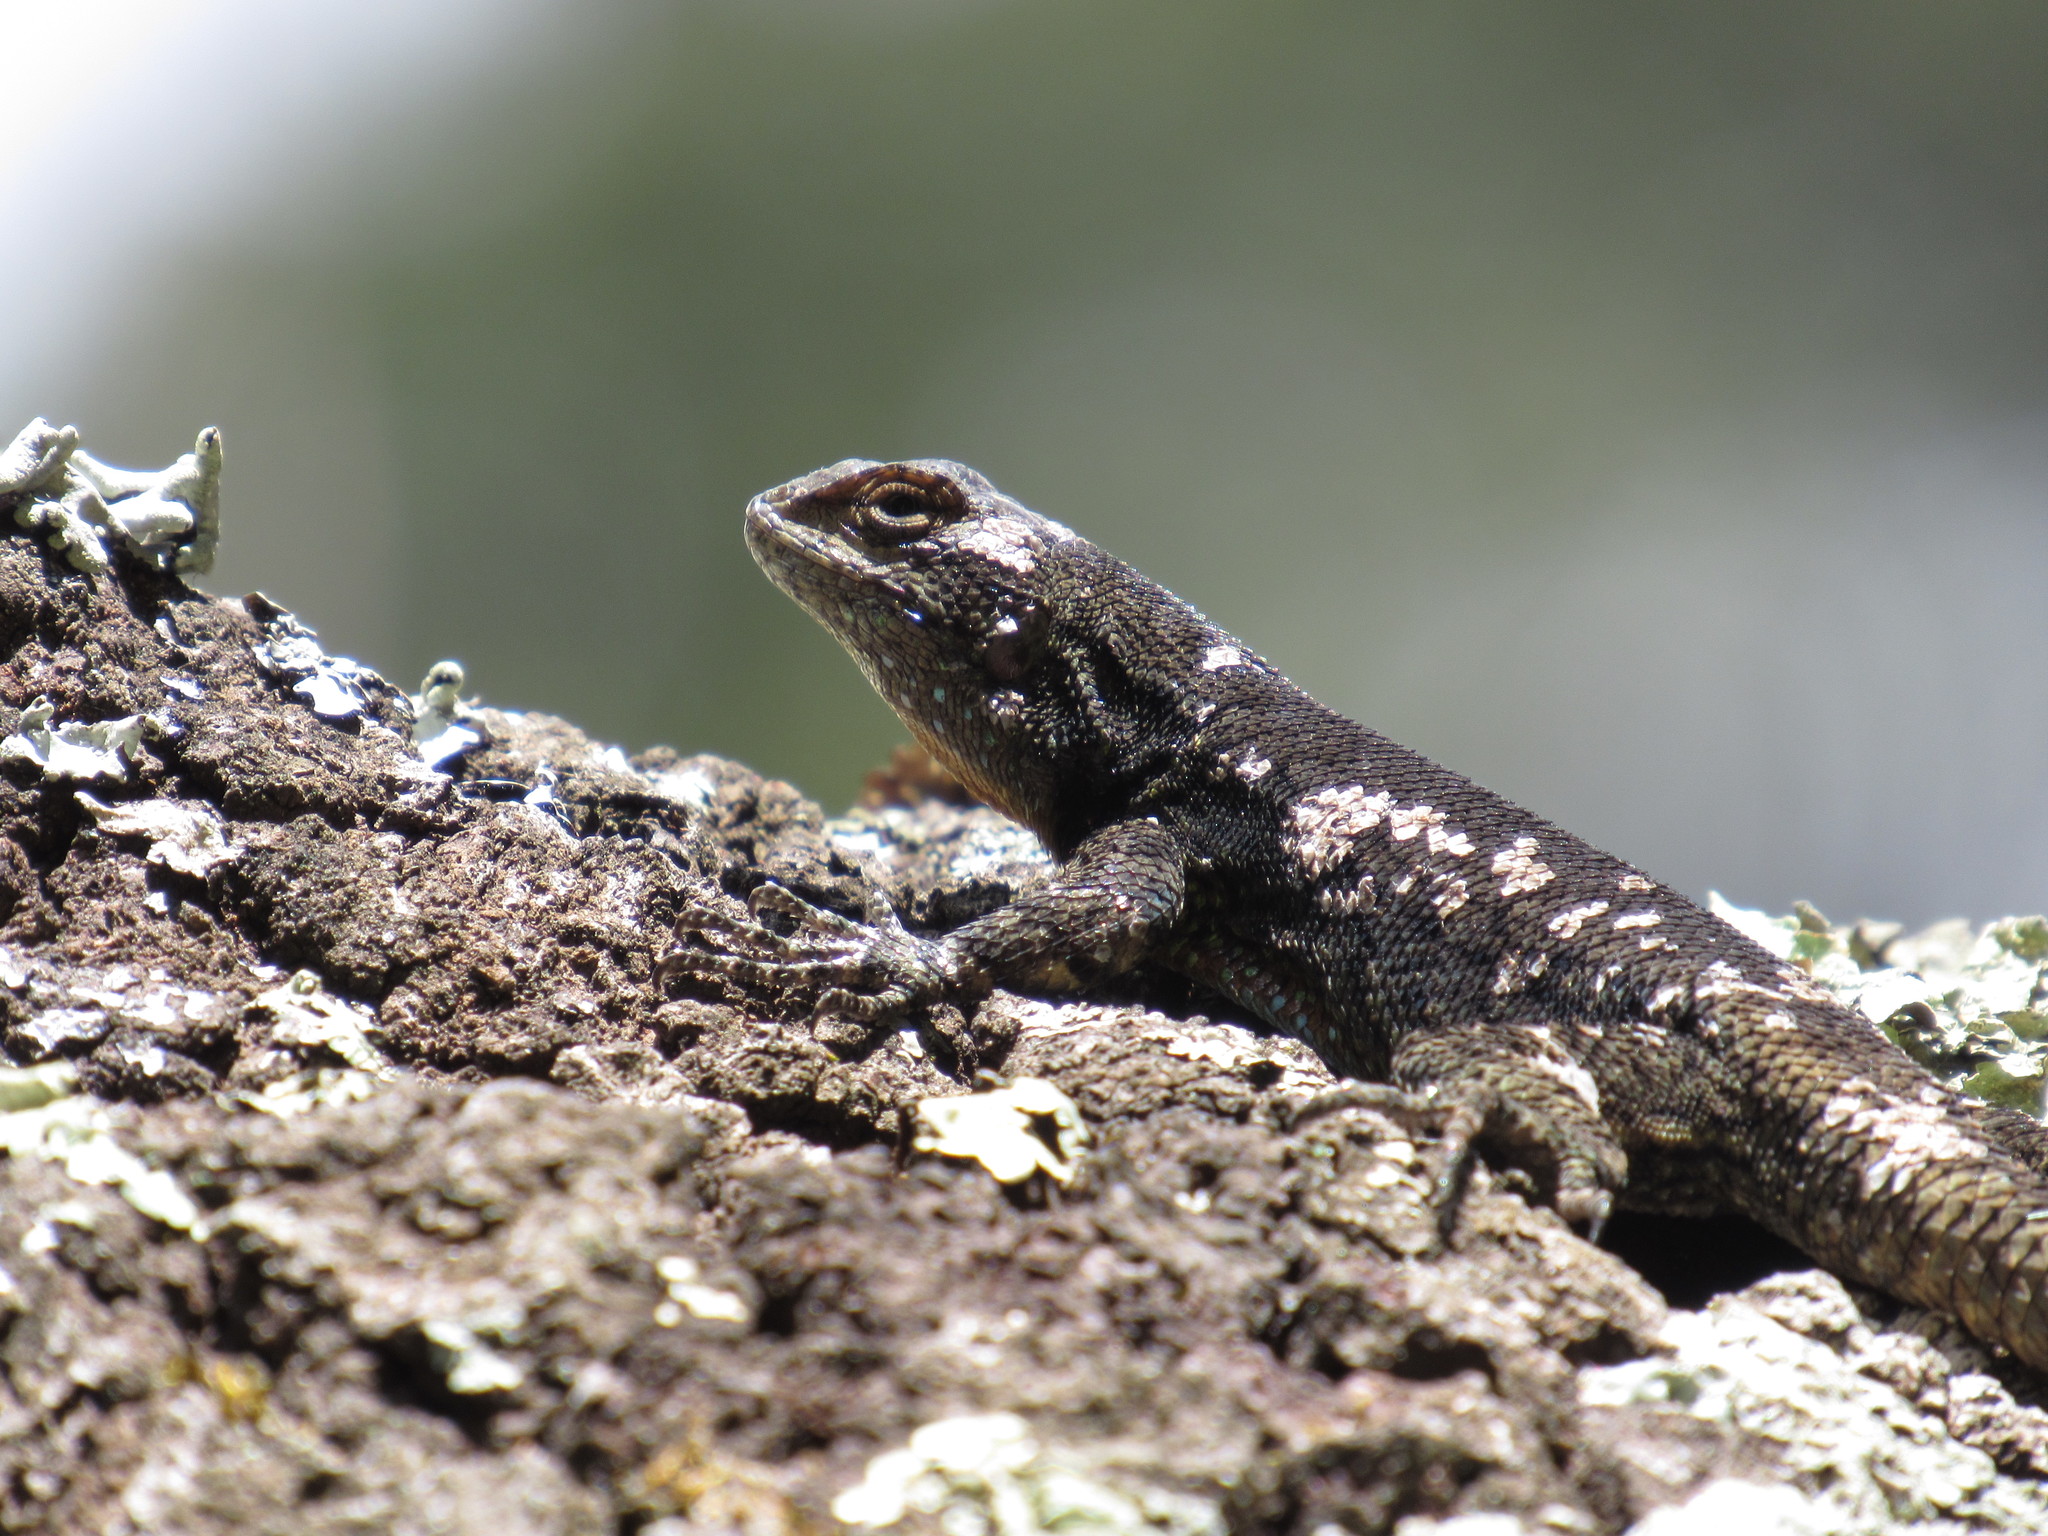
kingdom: Animalia
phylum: Chordata
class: Squamata
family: Phrynosomatidae
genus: Sceloporus
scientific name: Sceloporus grammicus
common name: Mesquite lizard
